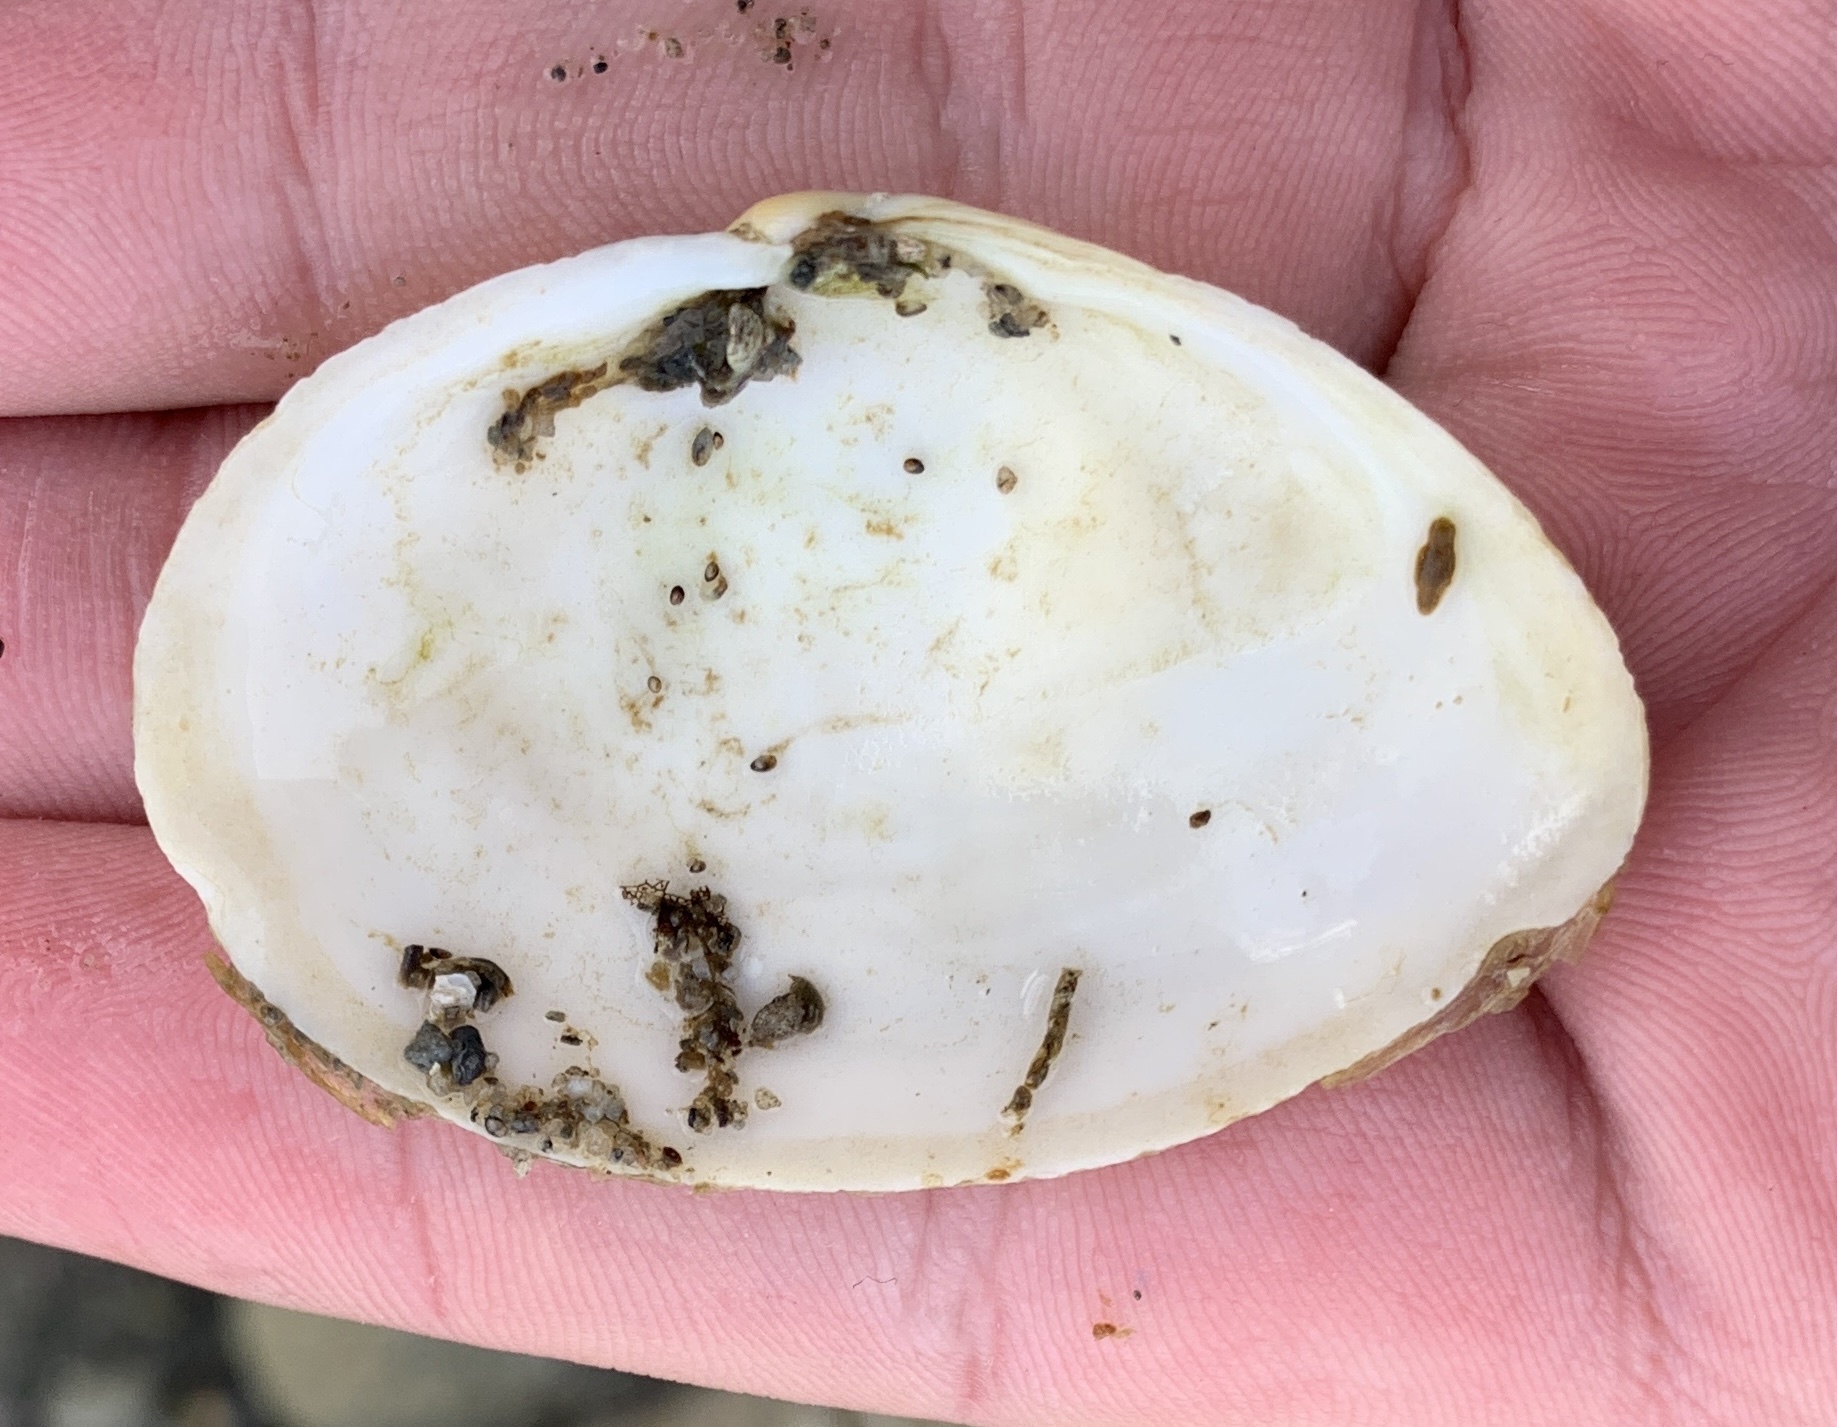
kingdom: Animalia
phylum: Mollusca
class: Bivalvia
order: Myida
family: Myidae
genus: Mya
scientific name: Mya arenaria
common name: Soft-shelled clam
